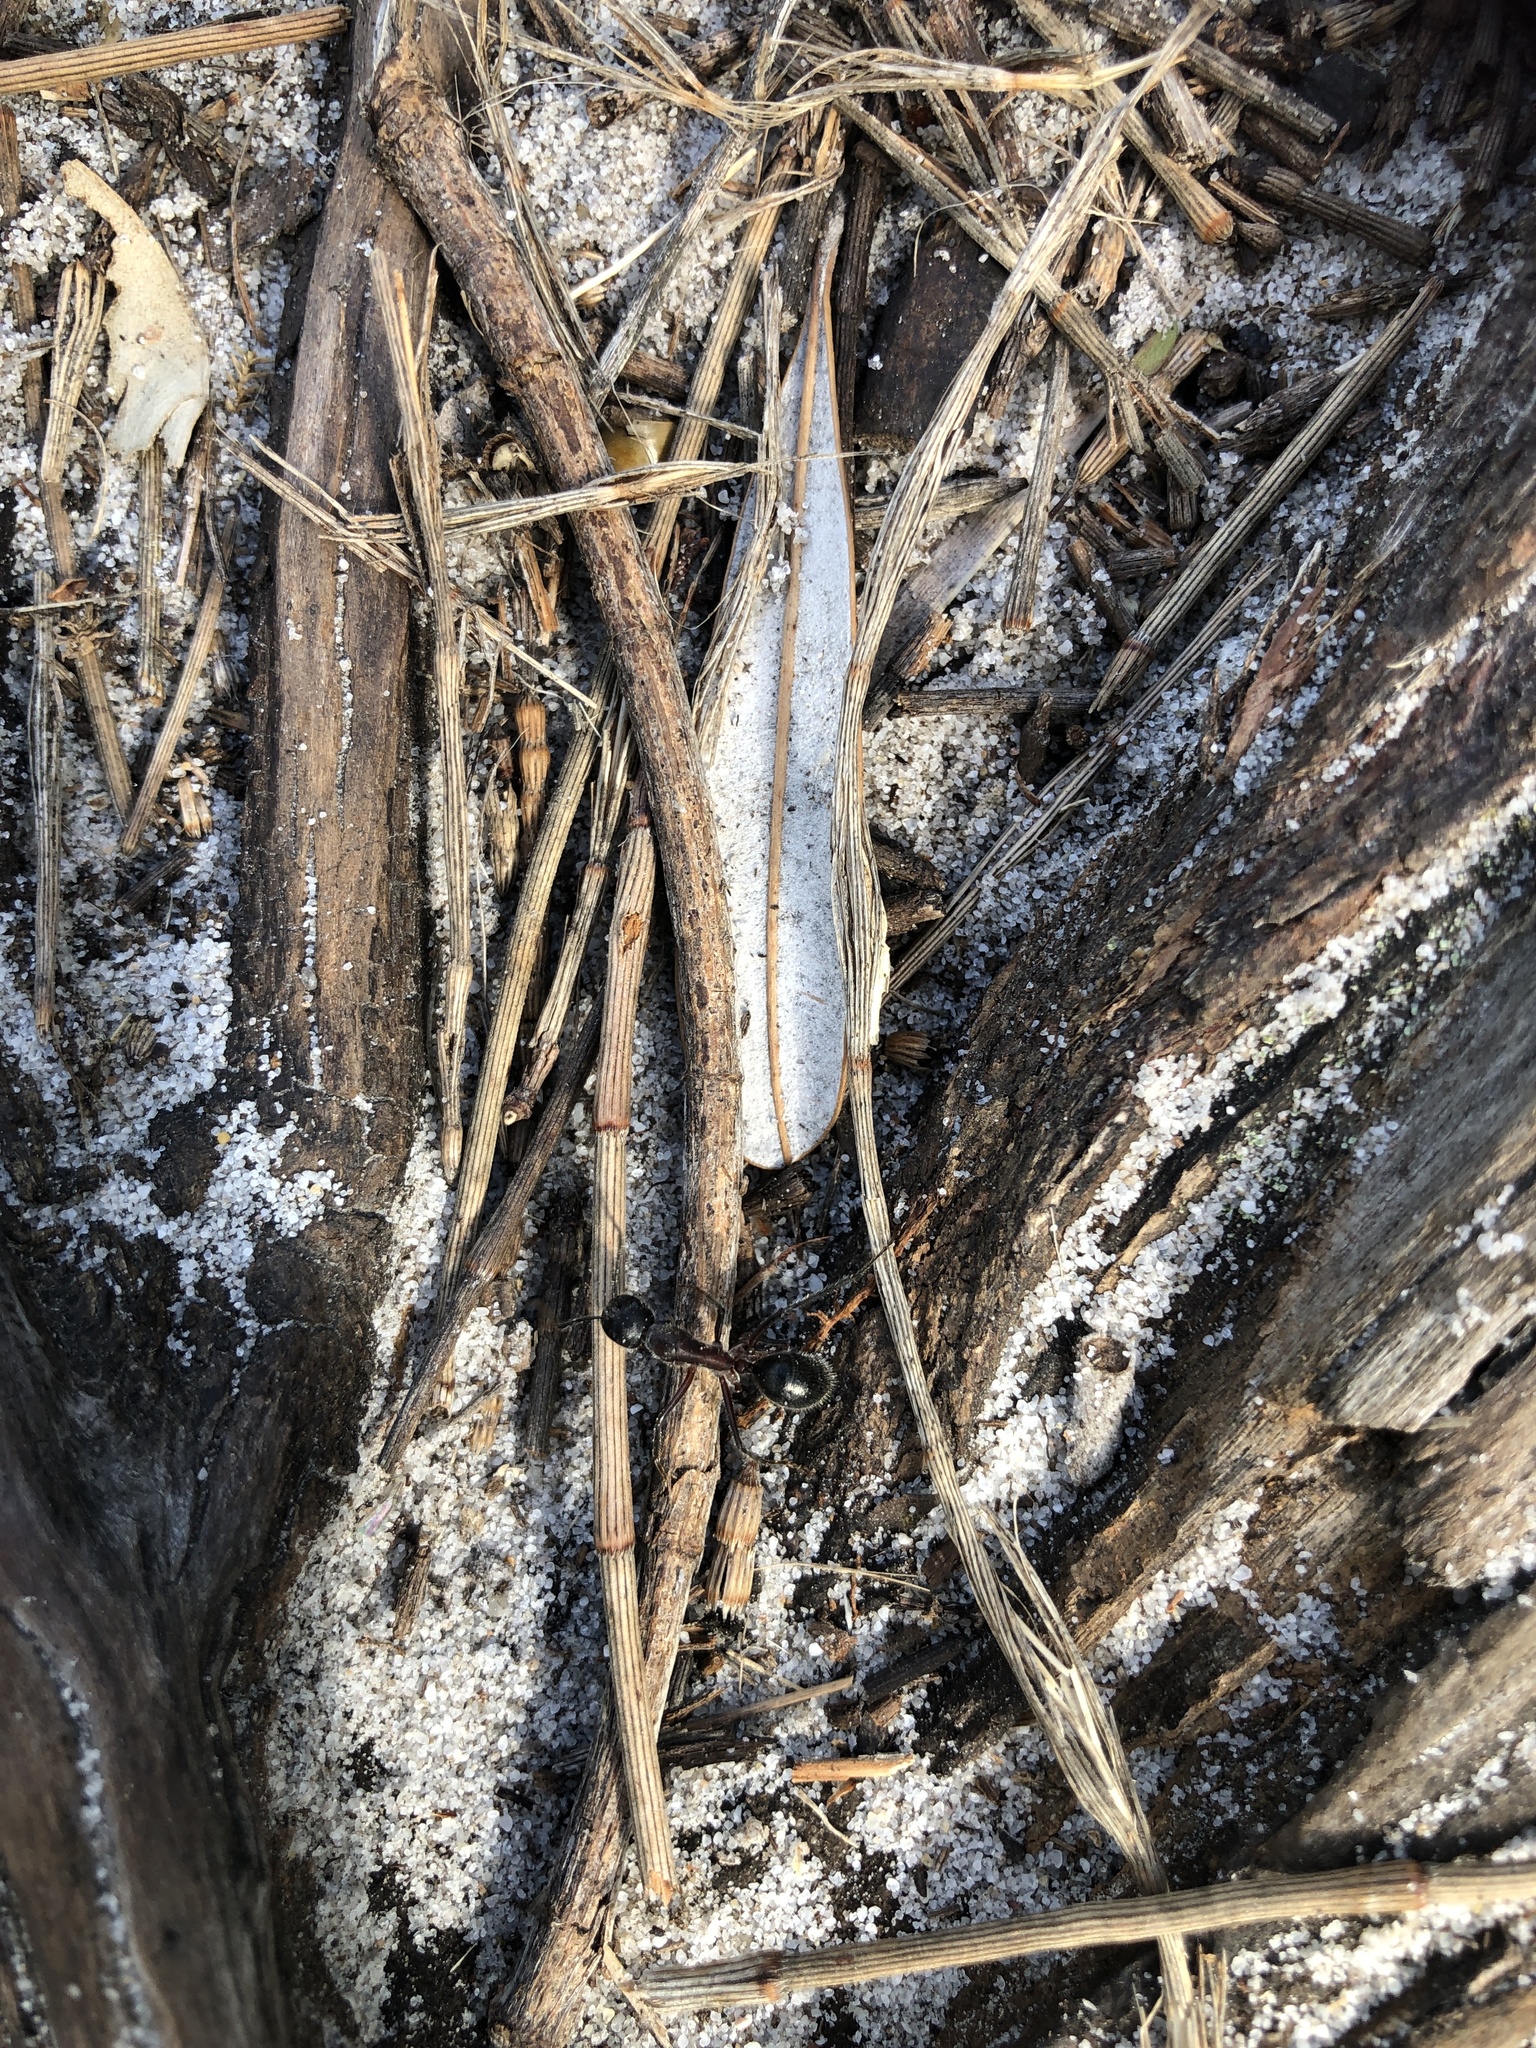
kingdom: Animalia
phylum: Arthropoda
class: Insecta
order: Hymenoptera
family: Formicidae
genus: Camponotus
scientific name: Camponotus intrepidus
